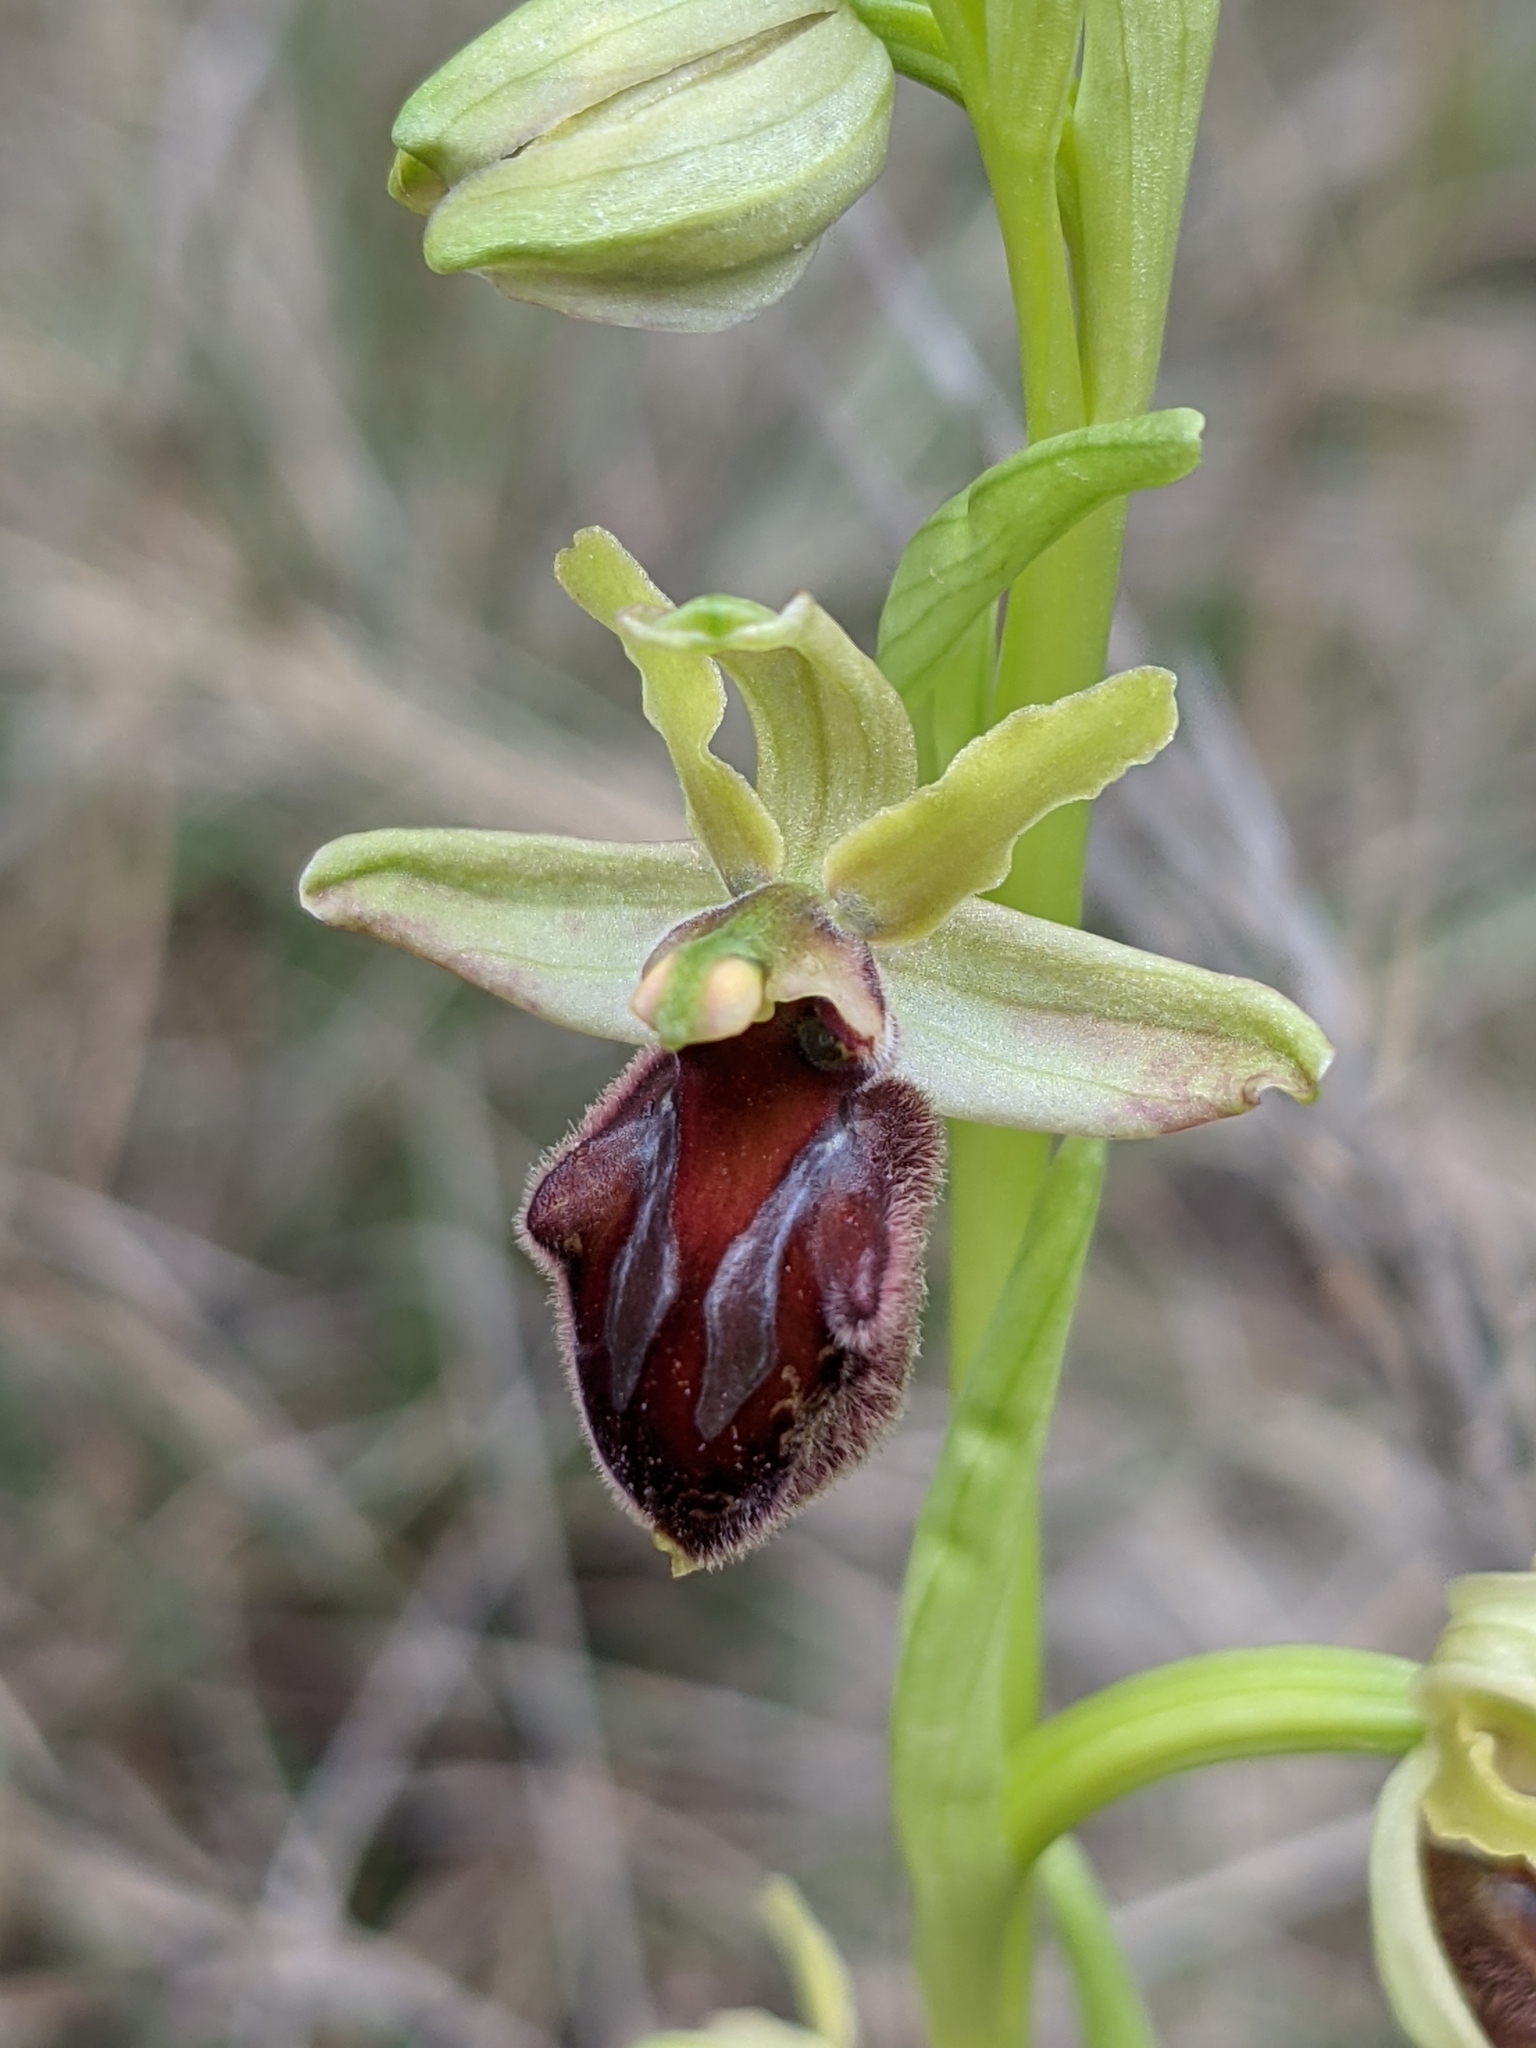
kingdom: Plantae
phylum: Tracheophyta
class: Liliopsida
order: Asparagales
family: Orchidaceae
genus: Ophrys
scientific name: Ophrys sphegodes
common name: Early spider-orchid
